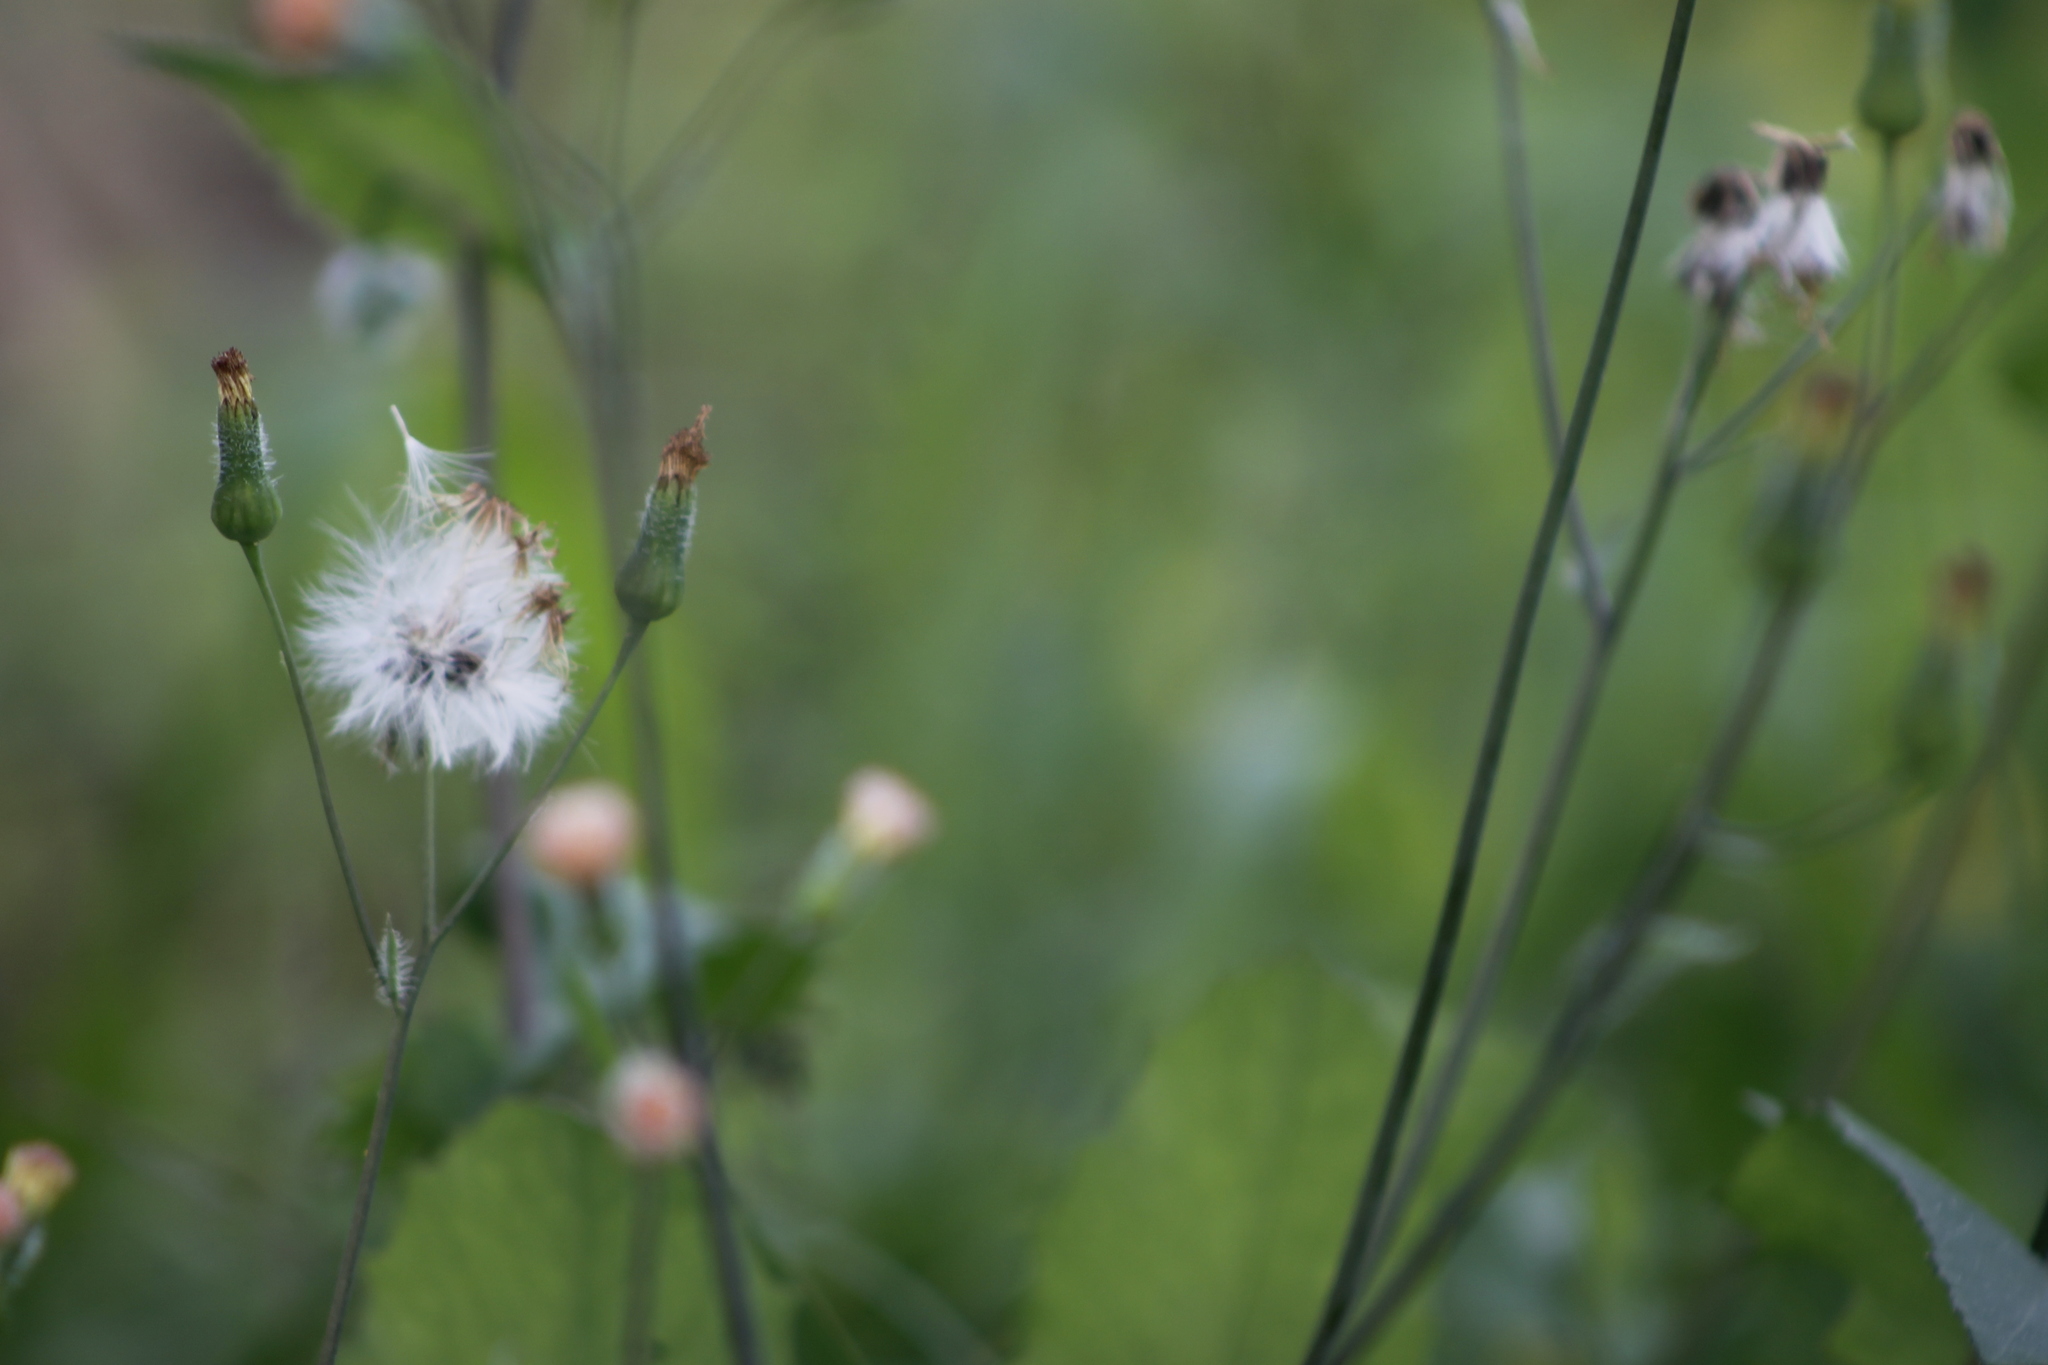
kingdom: Plantae
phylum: Tracheophyta
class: Magnoliopsida
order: Asterales
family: Asteraceae
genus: Emilia
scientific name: Emilia sonchifolia
